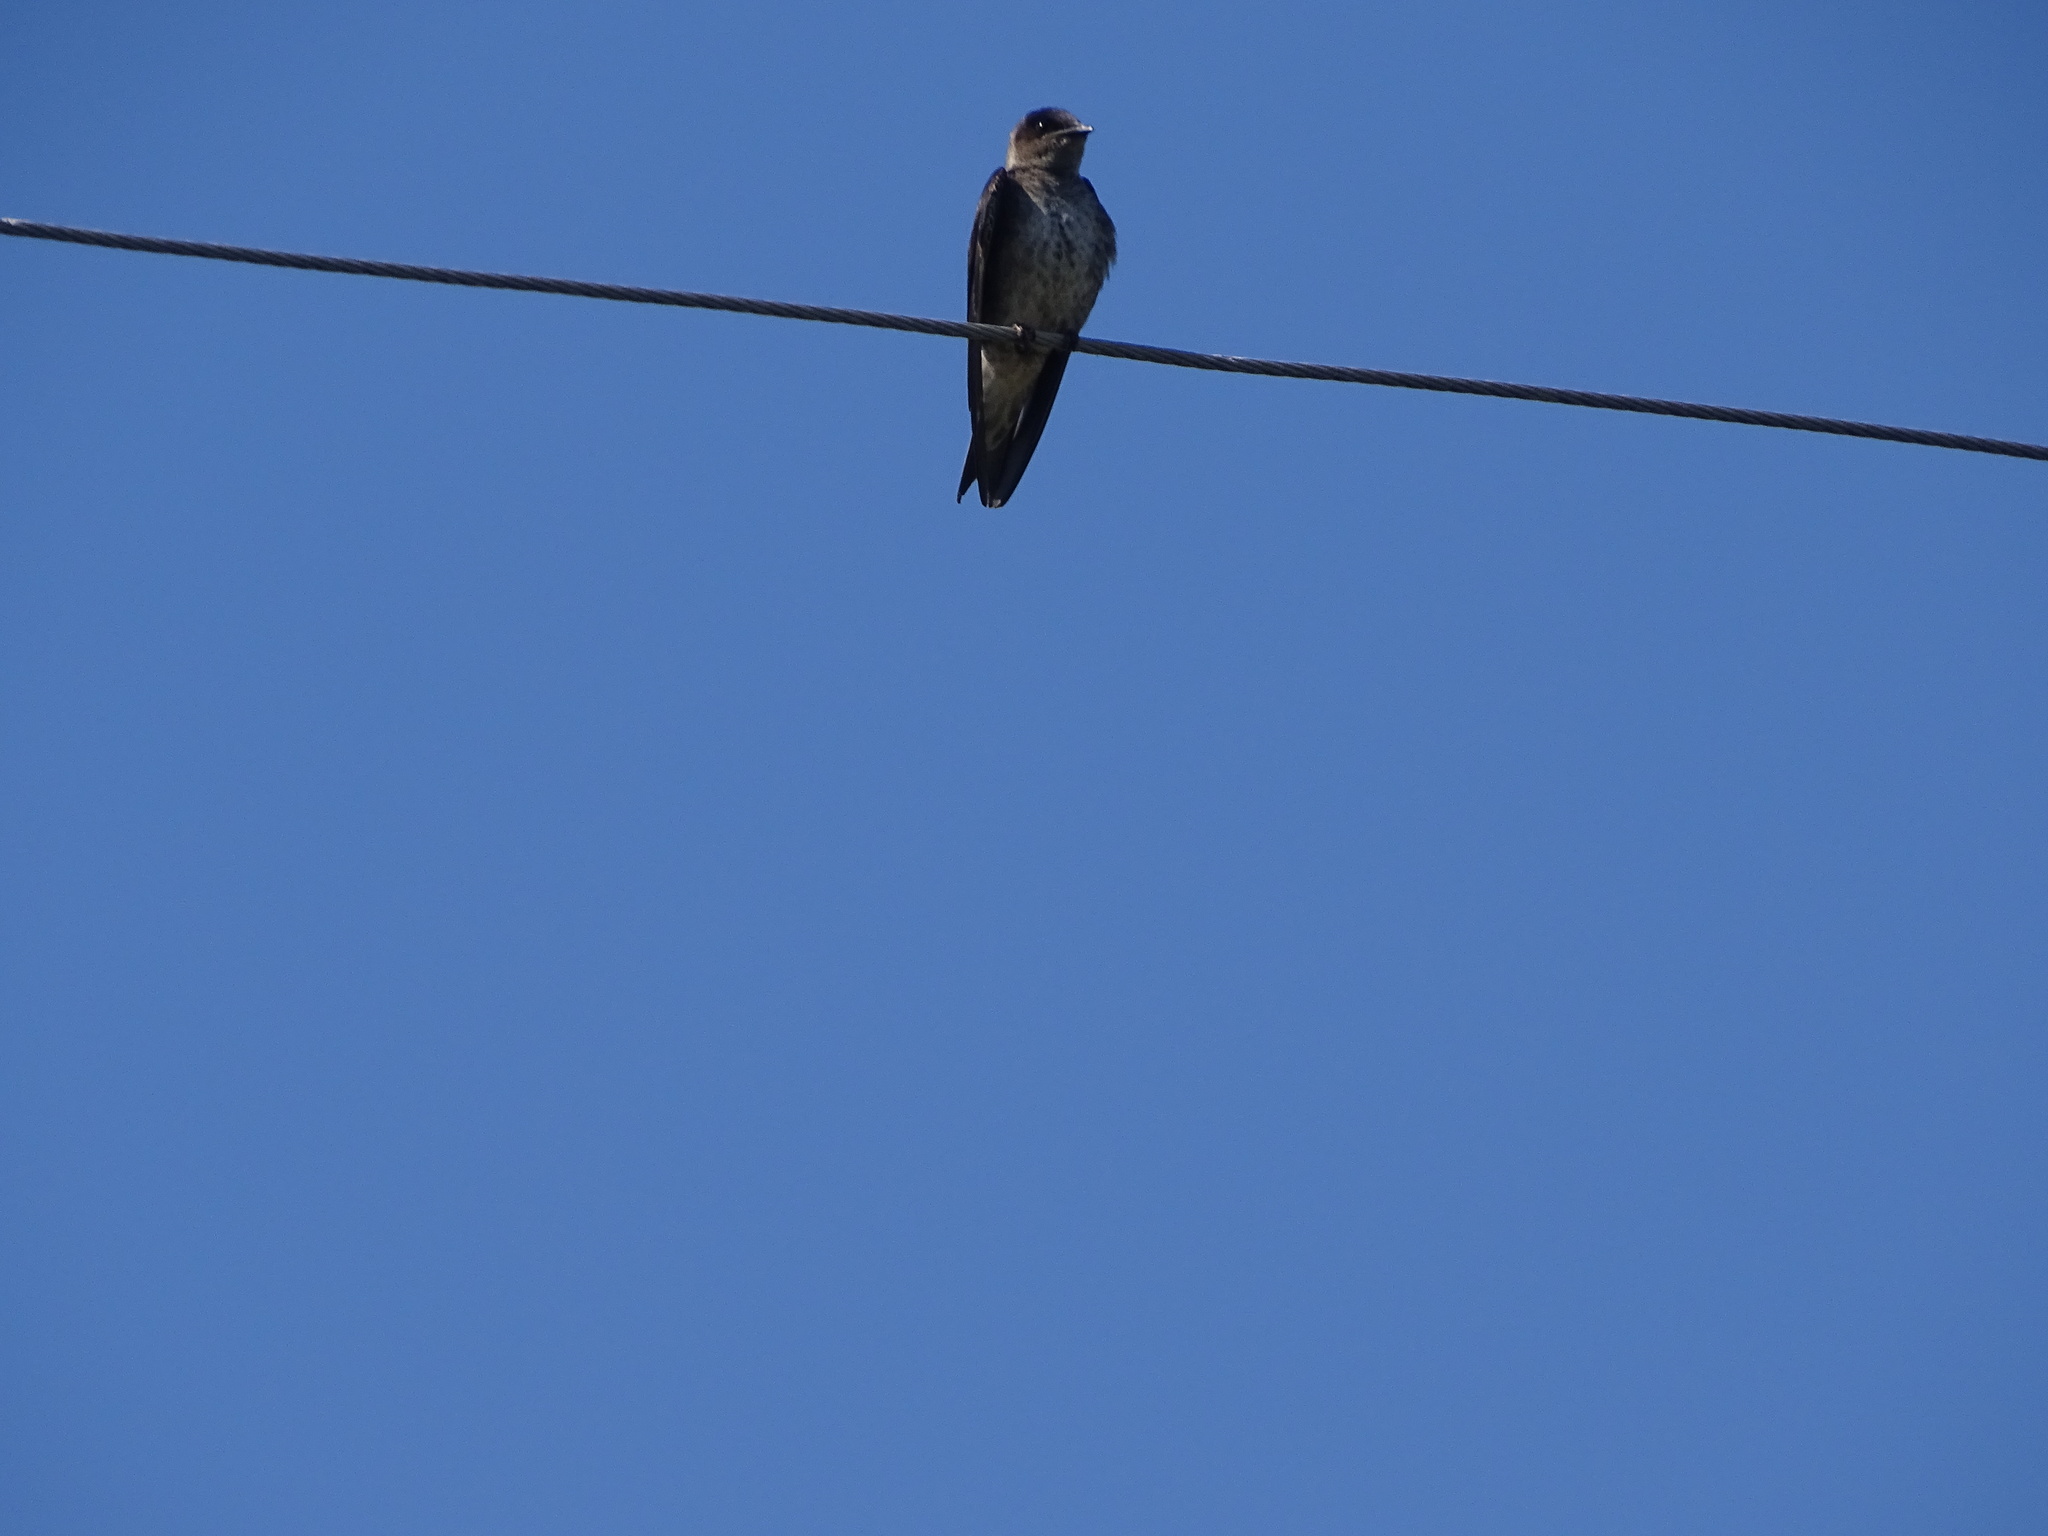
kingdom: Animalia
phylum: Chordata
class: Aves
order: Passeriformes
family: Hirundinidae
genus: Progne
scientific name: Progne subis
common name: Purple martin
